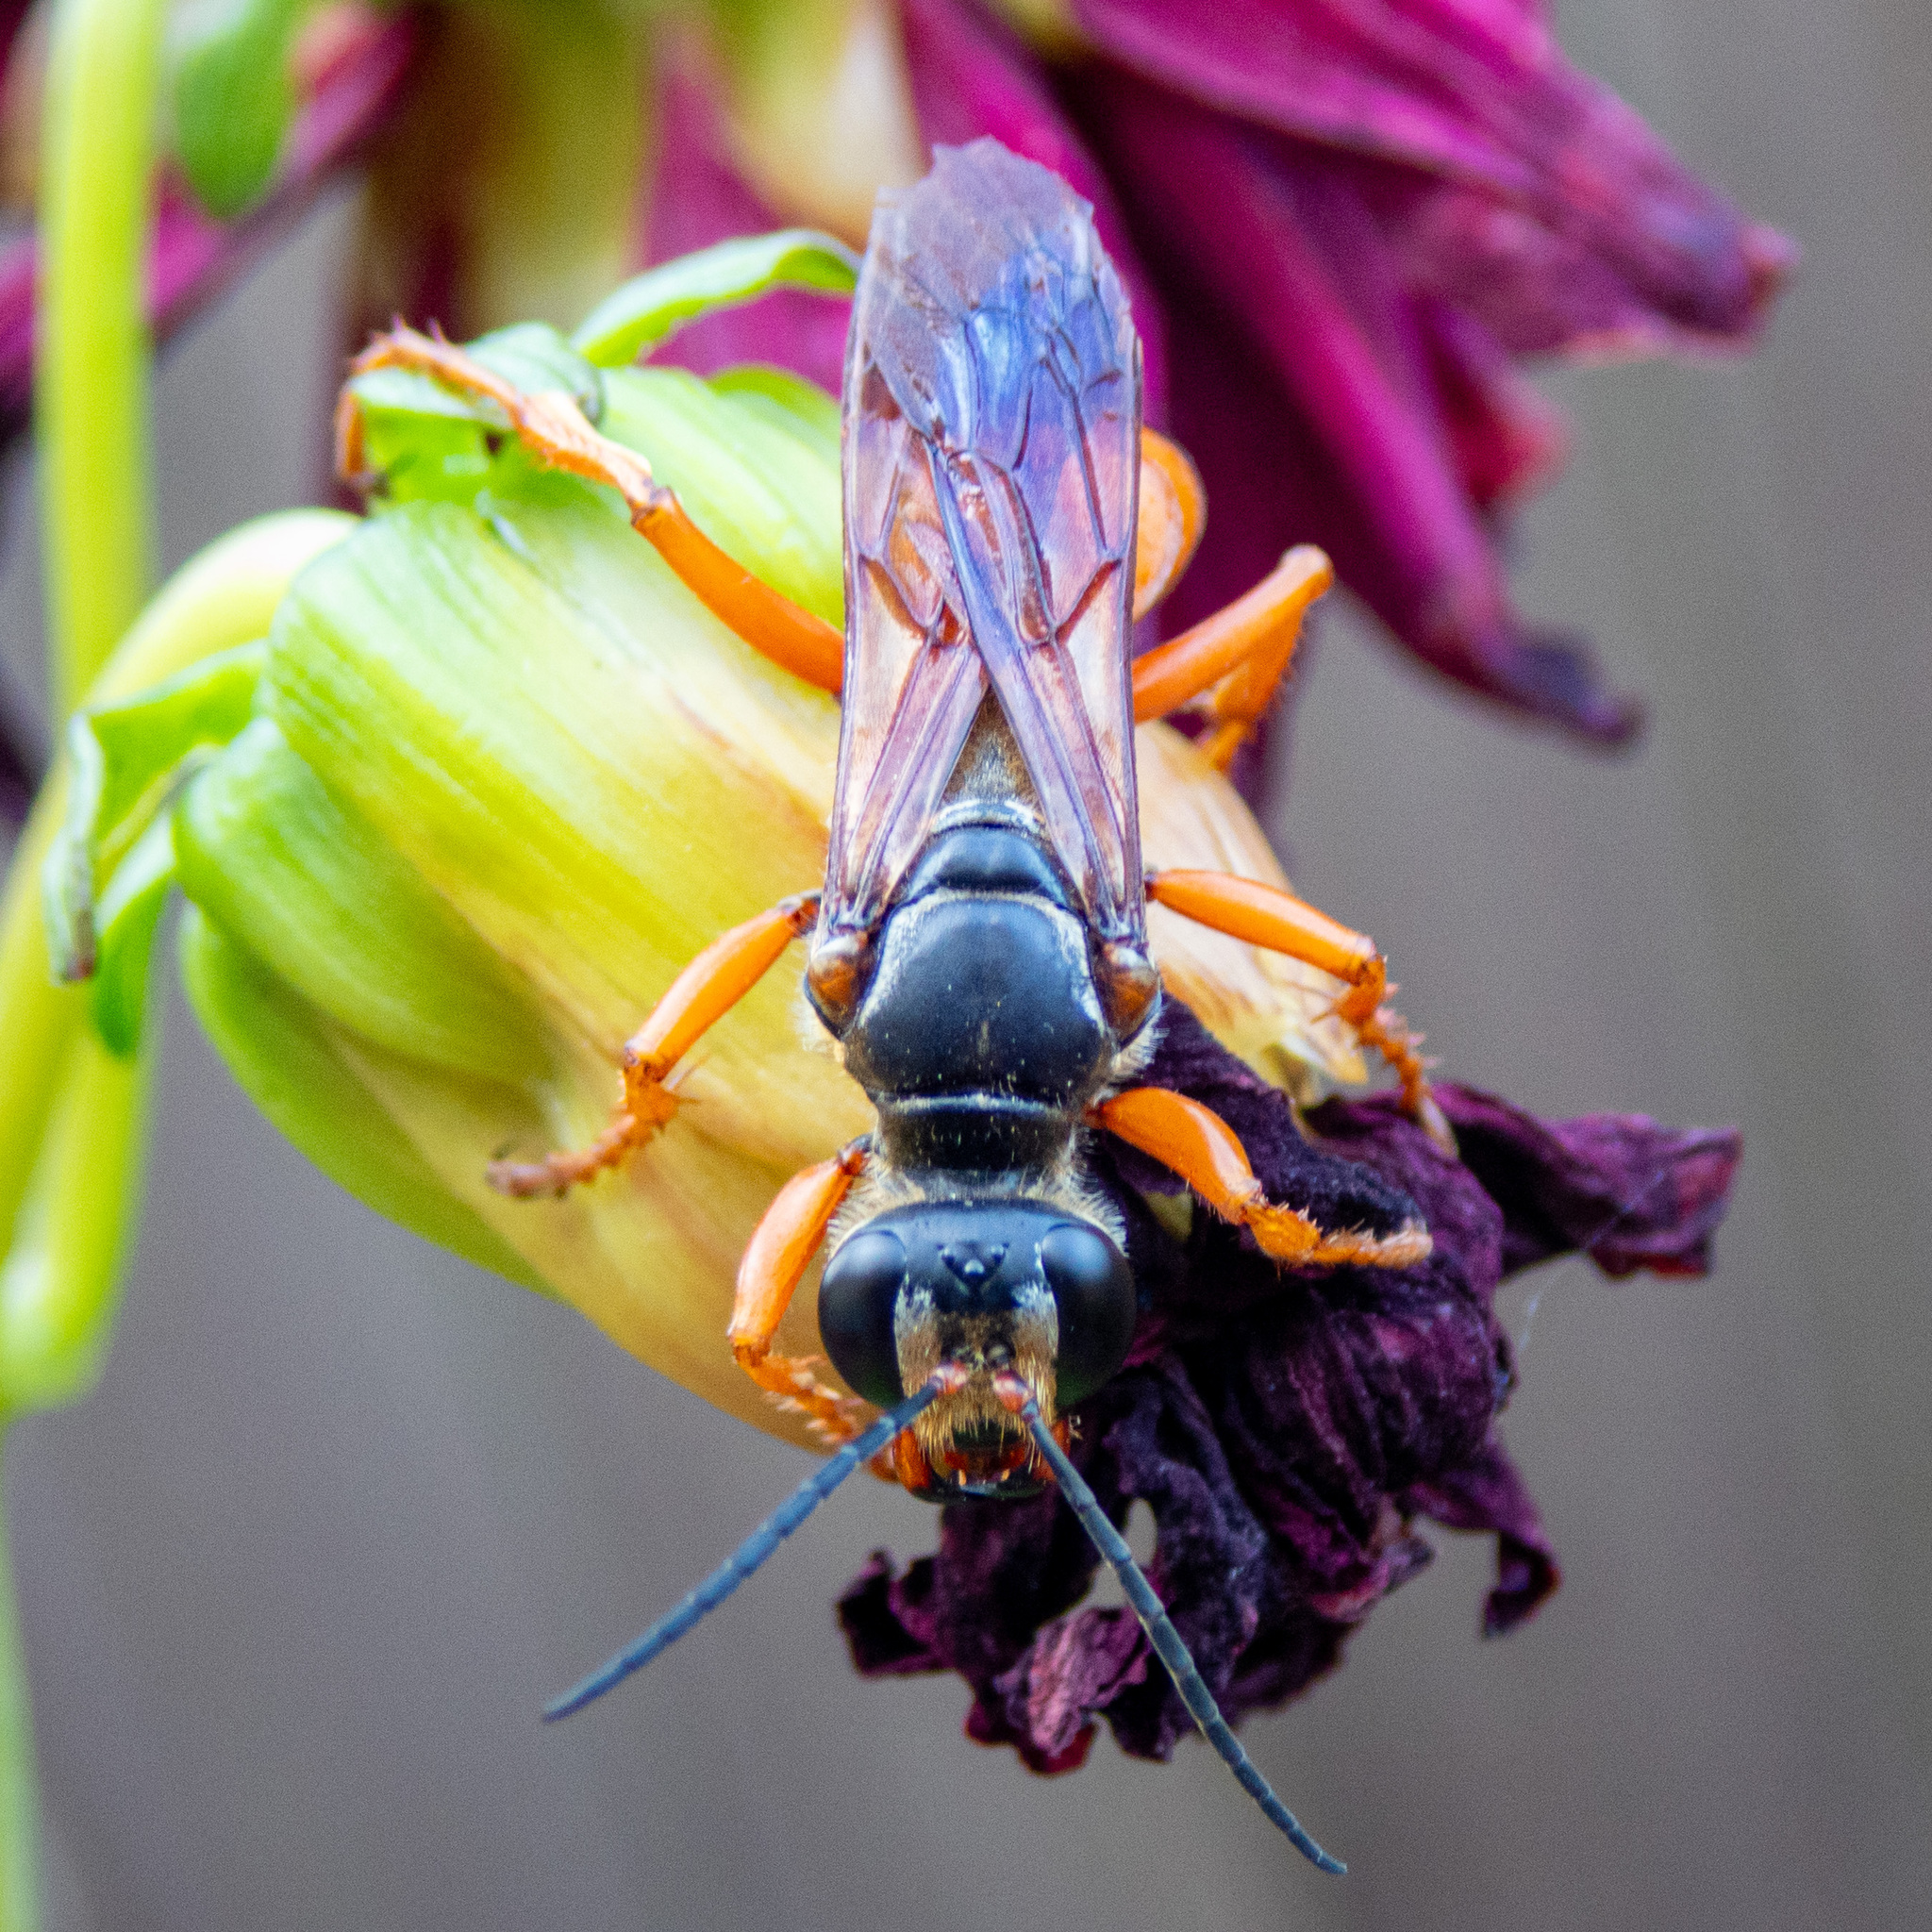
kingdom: Animalia
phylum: Arthropoda
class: Insecta
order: Hymenoptera
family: Sphecidae
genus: Sphex
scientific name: Sphex ichneumoneus
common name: Great golden digger wasp
